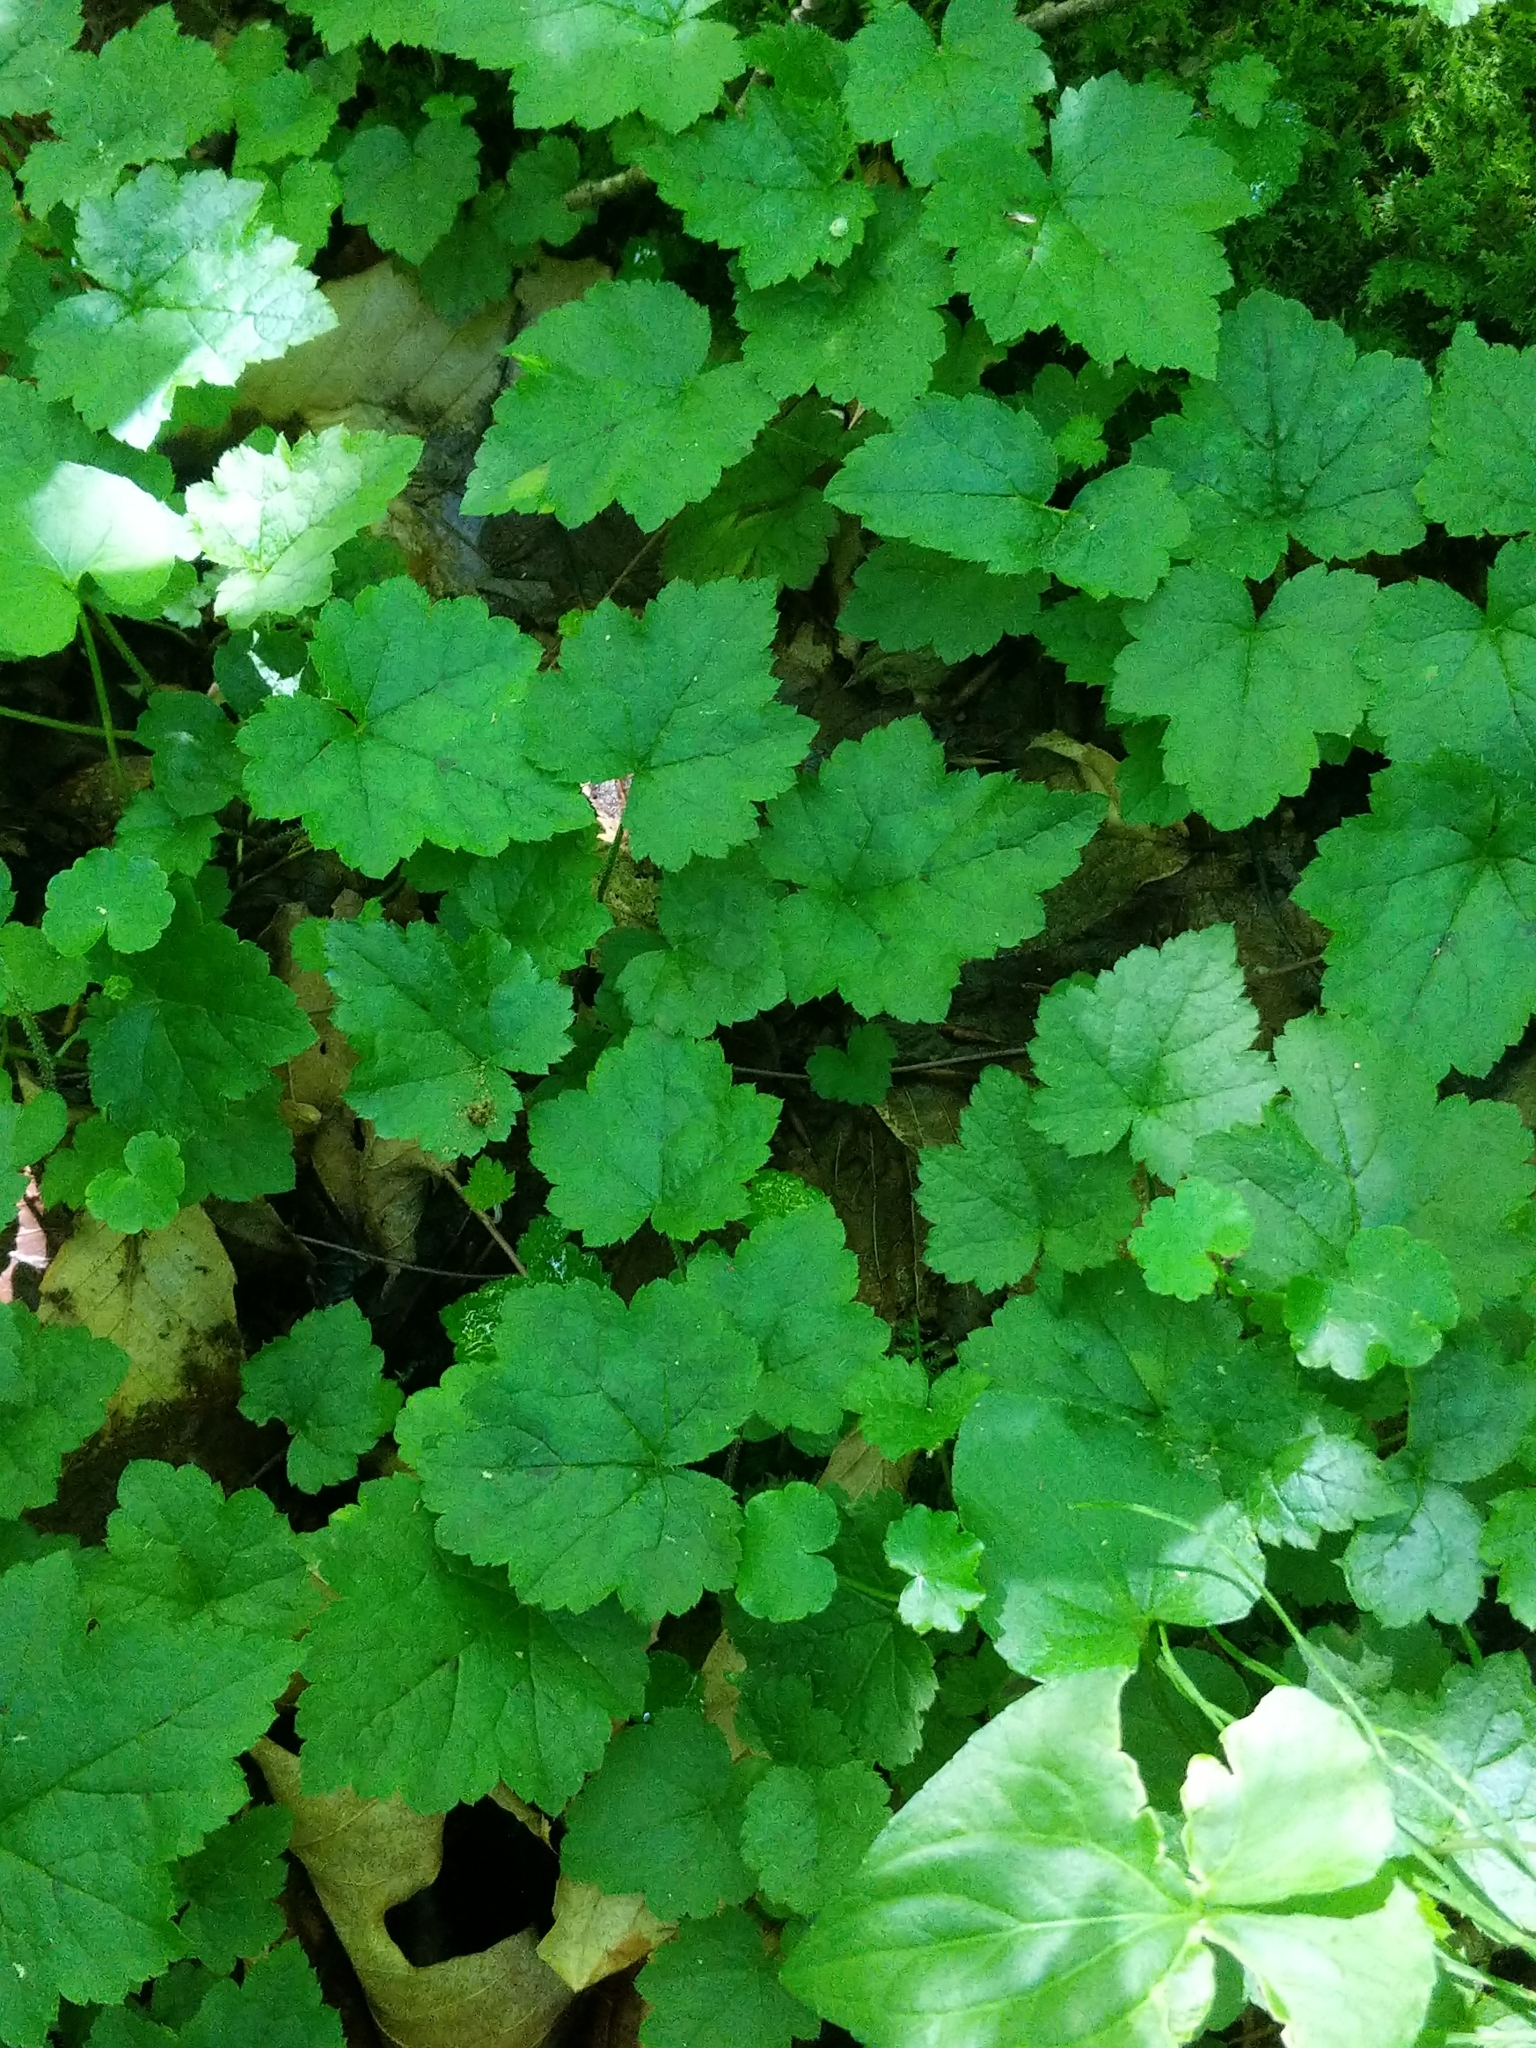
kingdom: Plantae
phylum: Tracheophyta
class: Magnoliopsida
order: Saxifragales
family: Saxifragaceae
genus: Tiarella
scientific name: Tiarella stolonifera
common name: Stoloniferous foamflower
